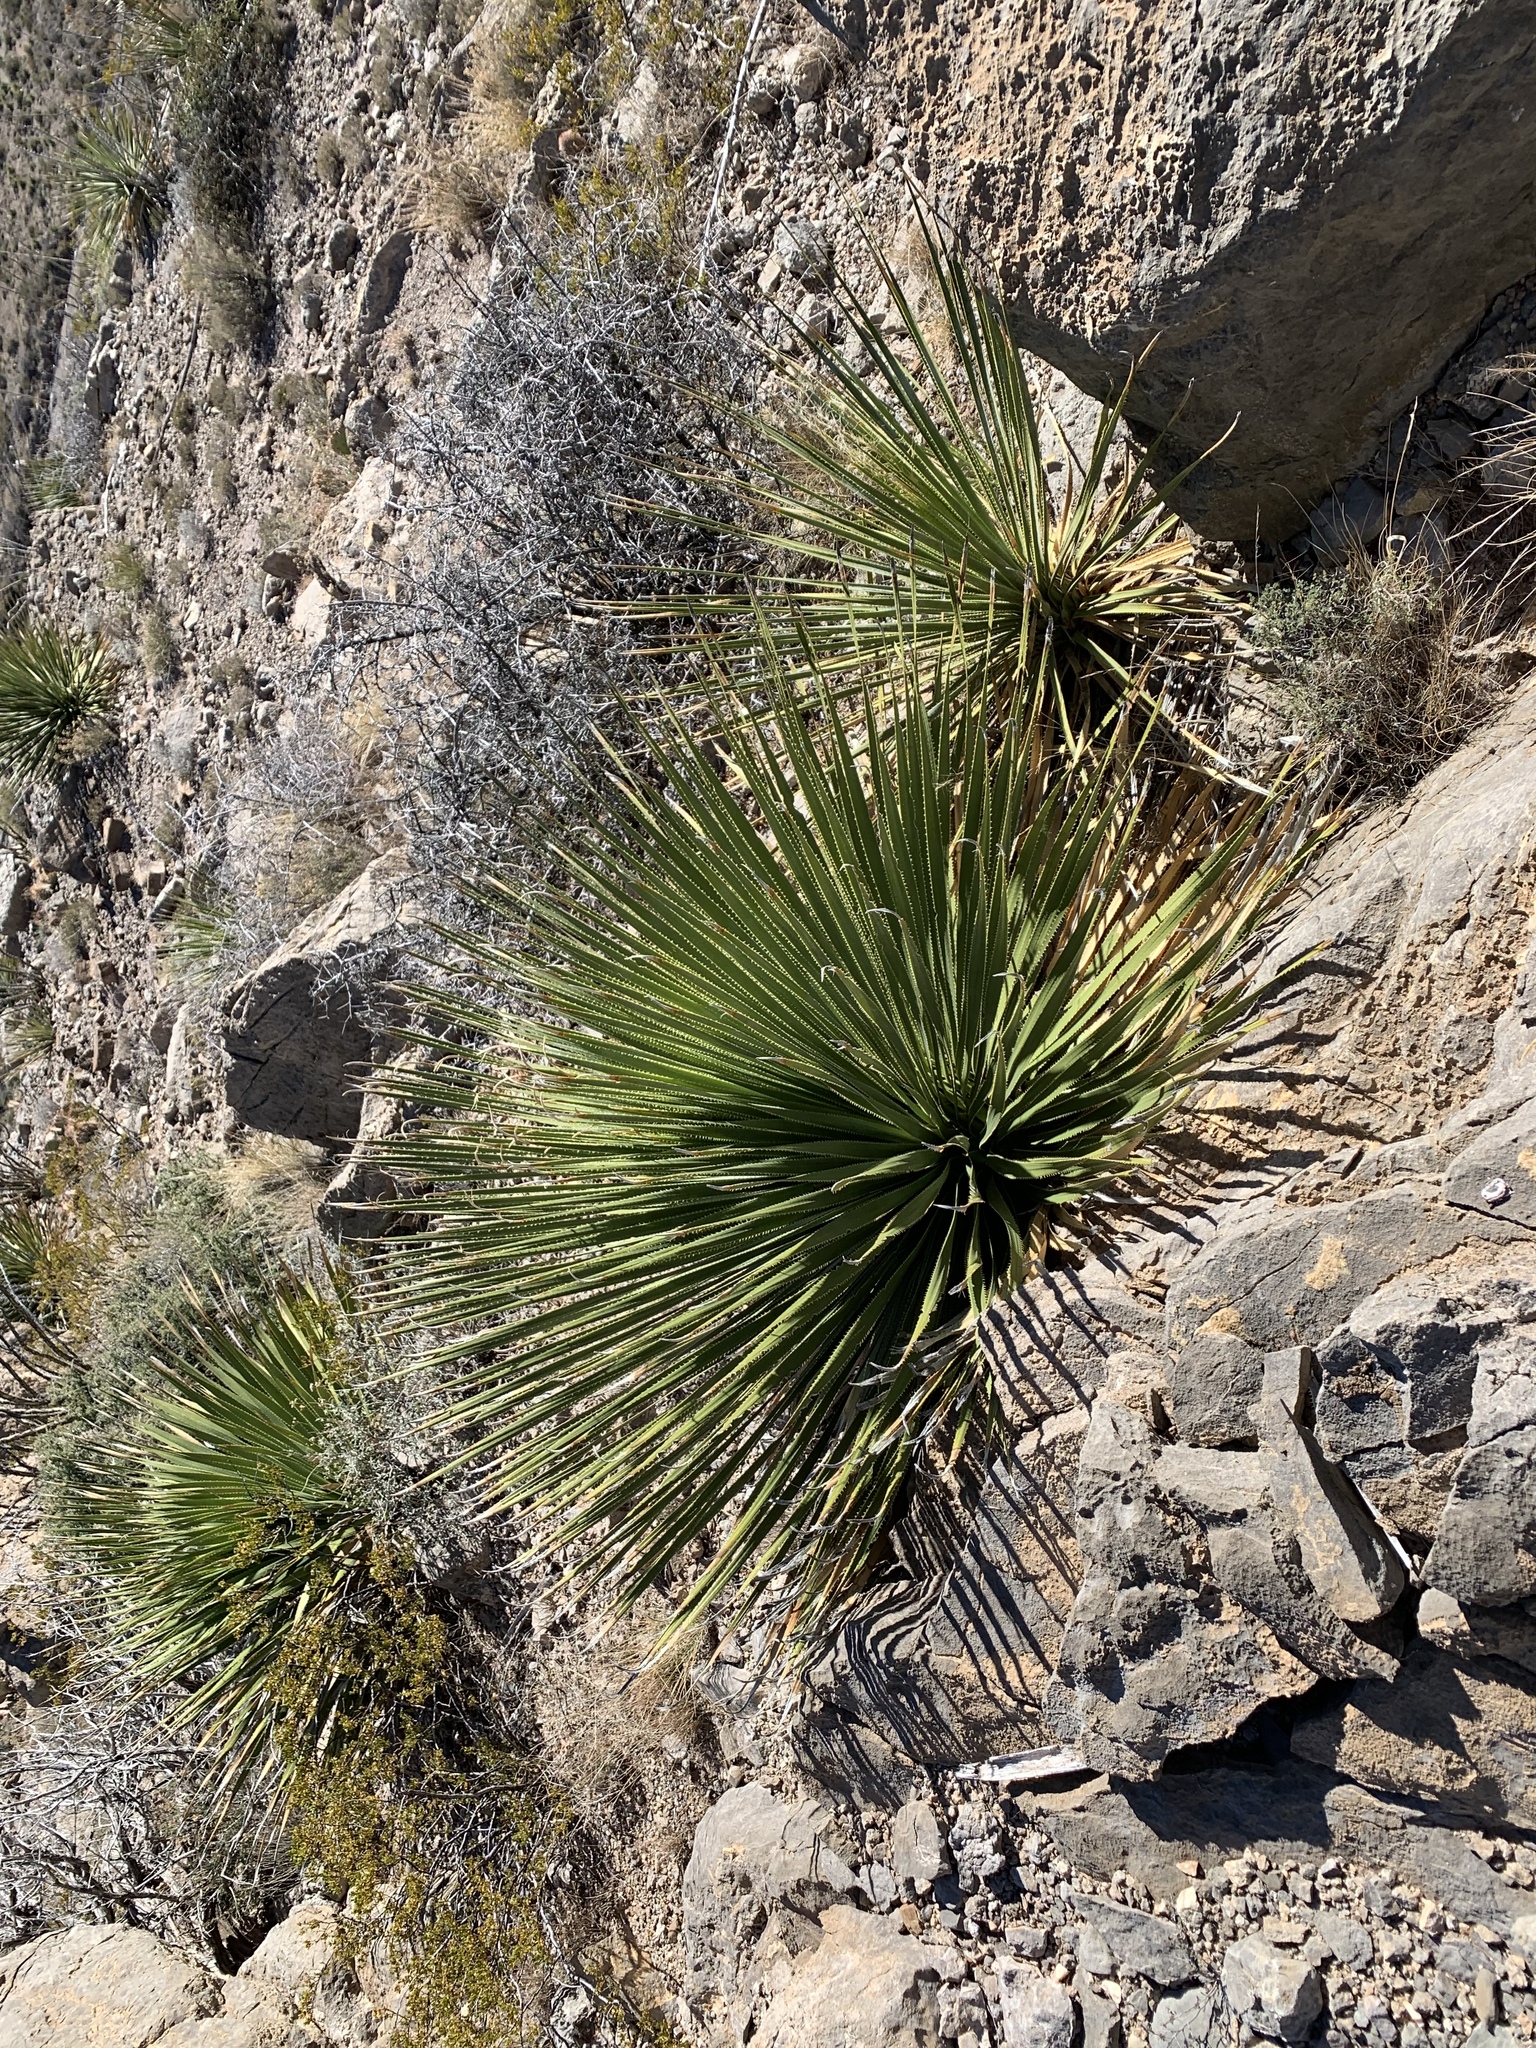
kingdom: Plantae
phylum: Tracheophyta
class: Liliopsida
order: Asparagales
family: Asparagaceae
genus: Dasylirion
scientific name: Dasylirion wheeleri
